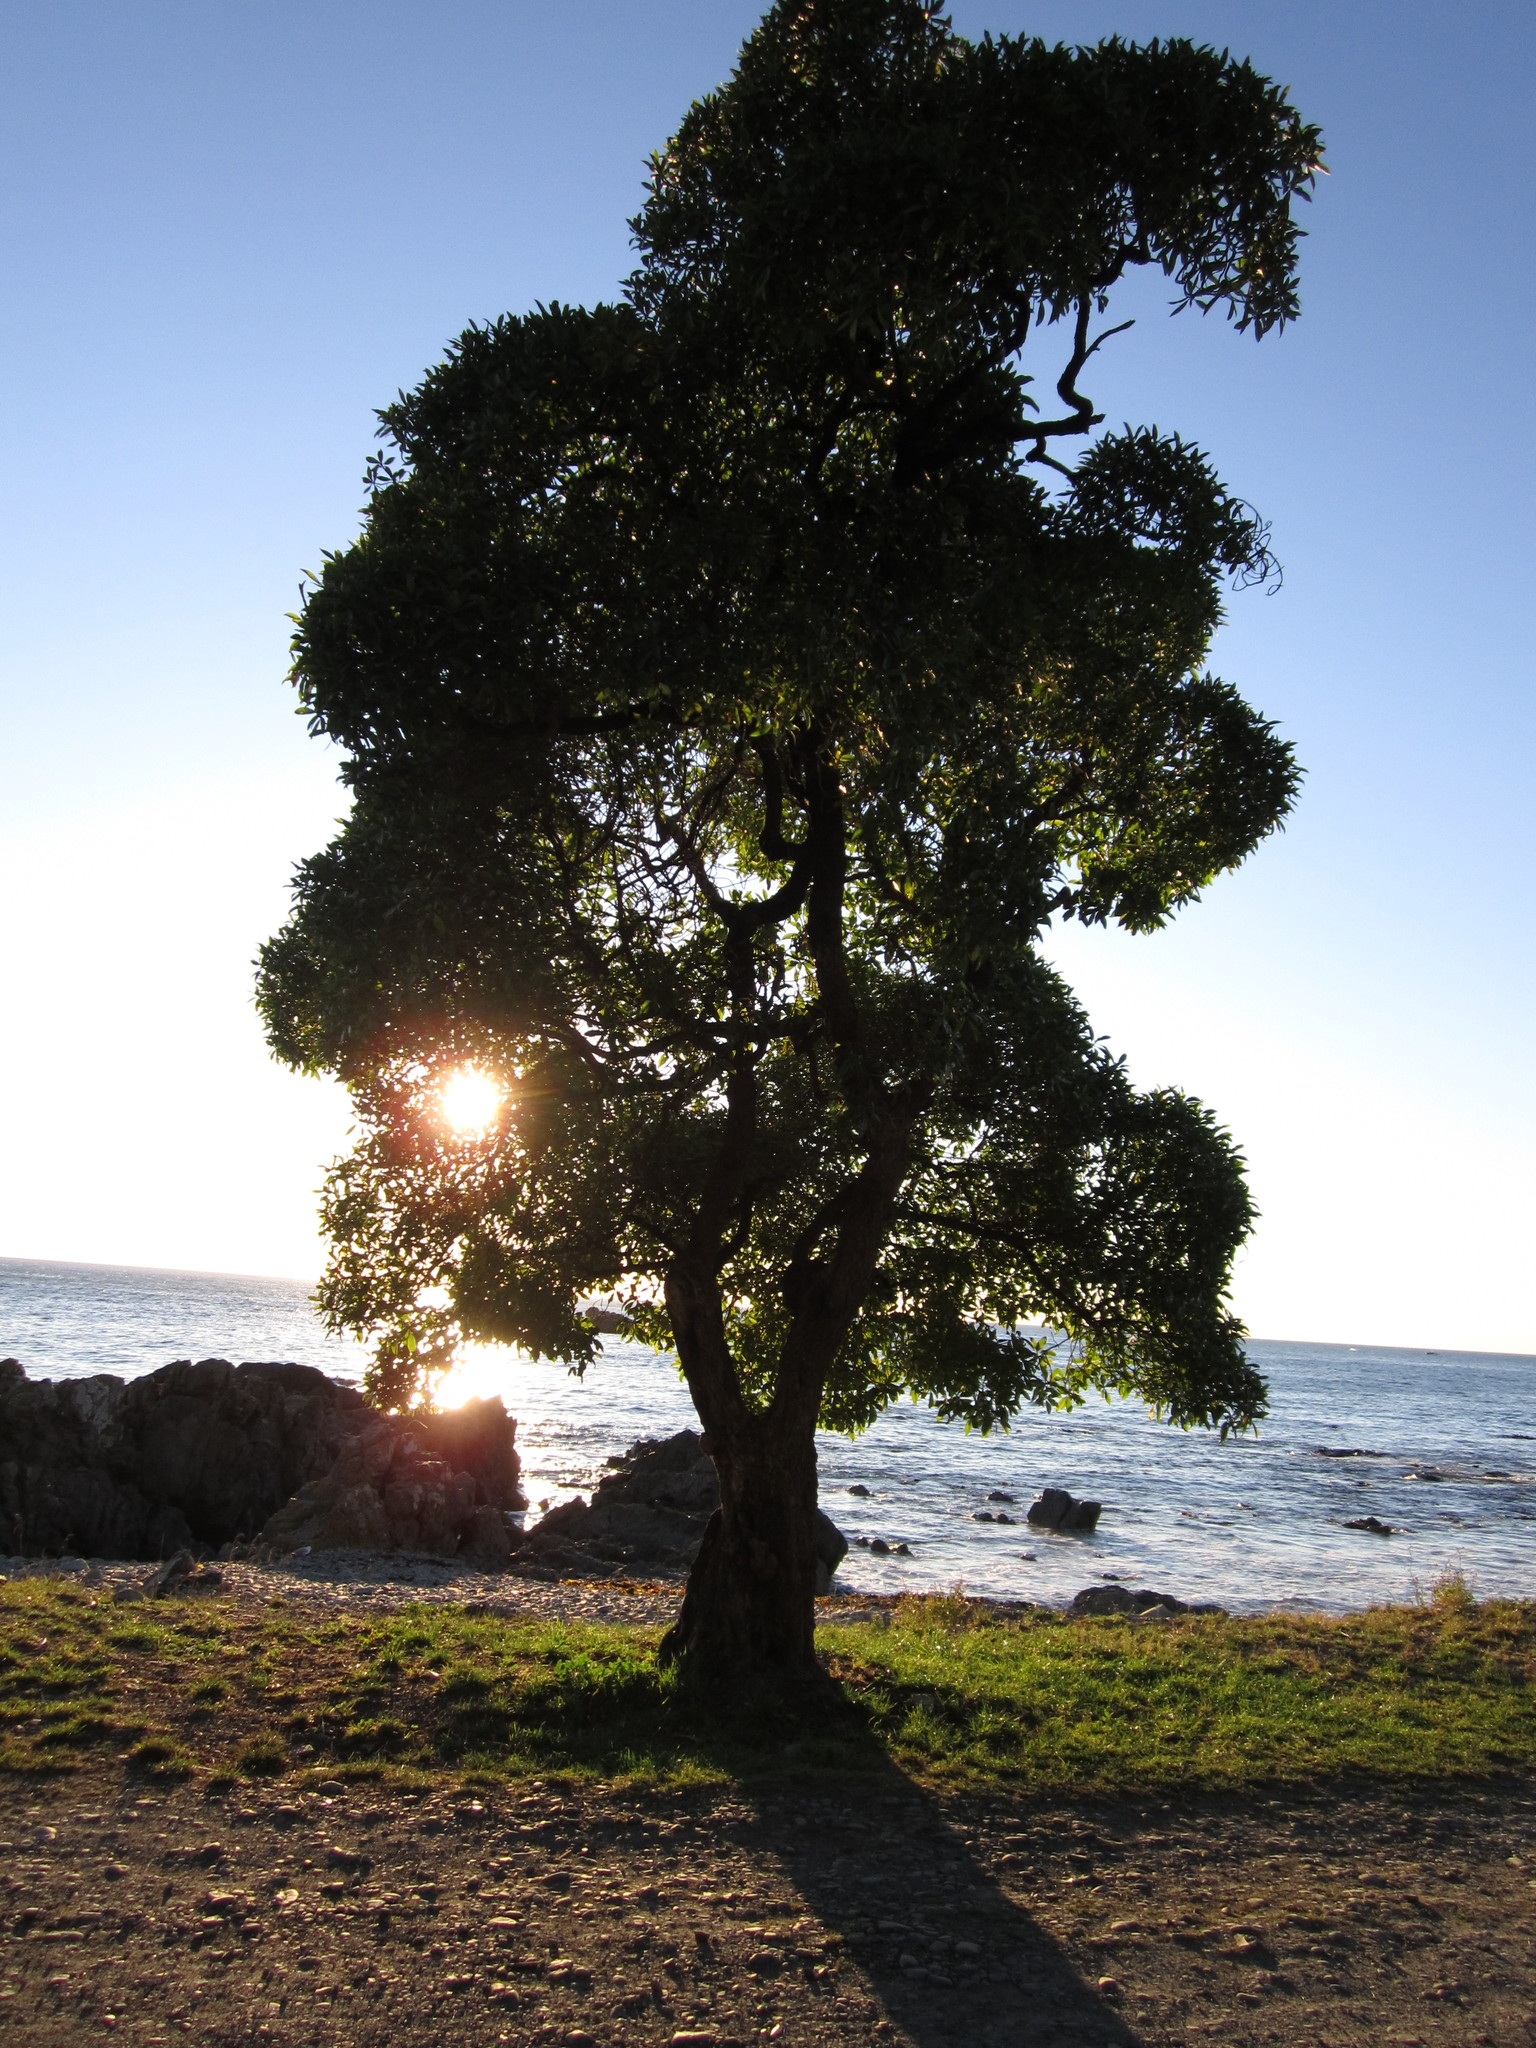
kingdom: Plantae
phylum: Tracheophyta
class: Magnoliopsida
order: Lamiales
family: Scrophulariaceae
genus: Myoporum
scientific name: Myoporum laetum
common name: Ngaio tree
